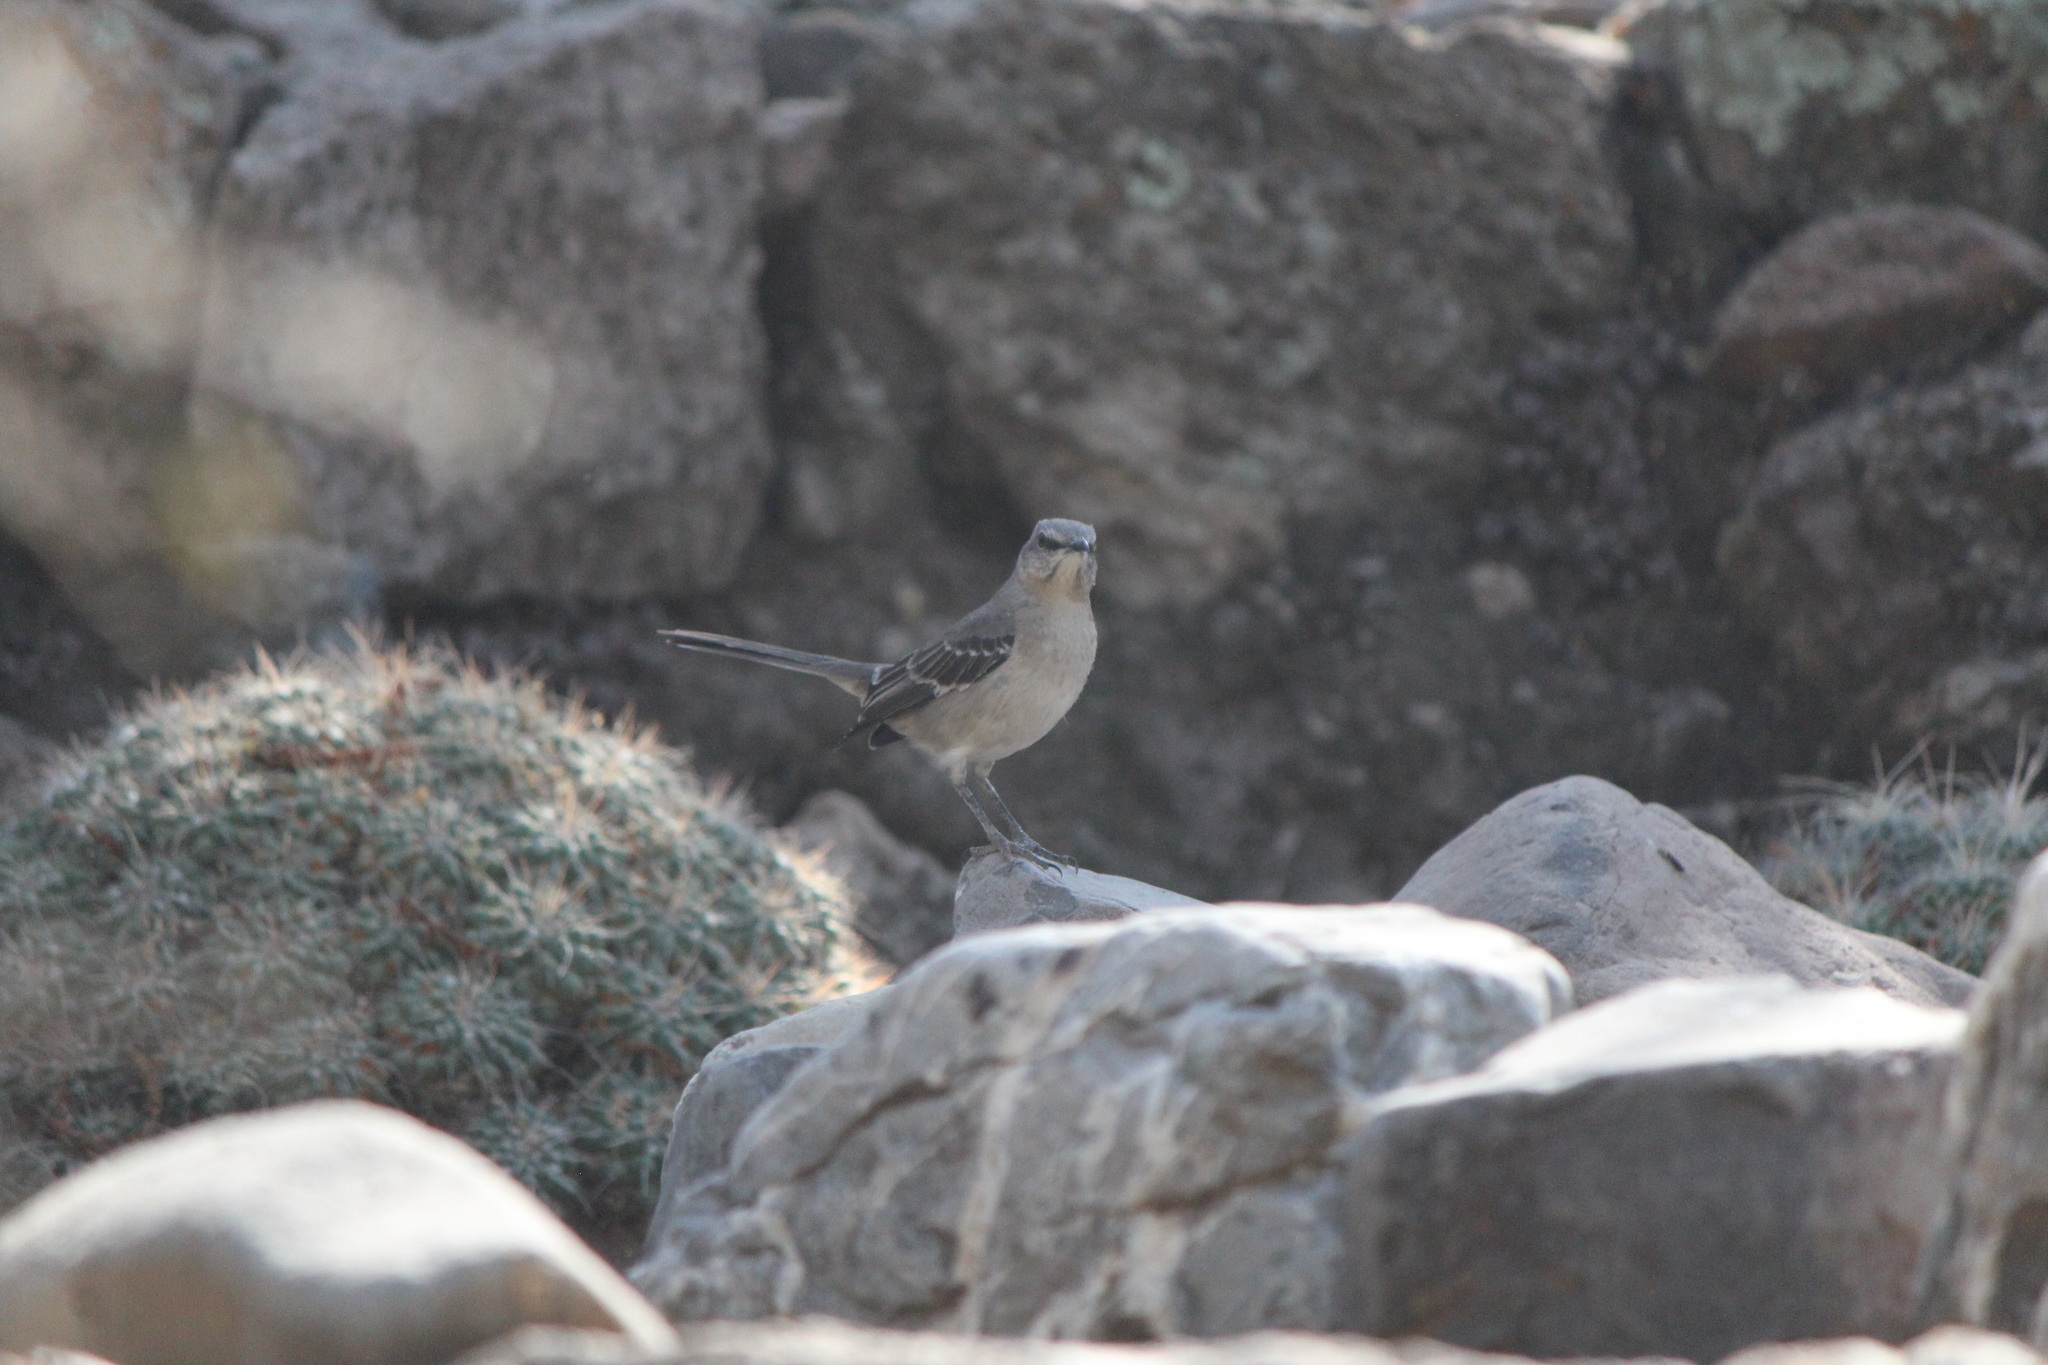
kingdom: Animalia
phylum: Chordata
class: Aves
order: Passeriformes
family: Mimidae
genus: Mimus
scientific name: Mimus polyglottos
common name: Northern mockingbird
